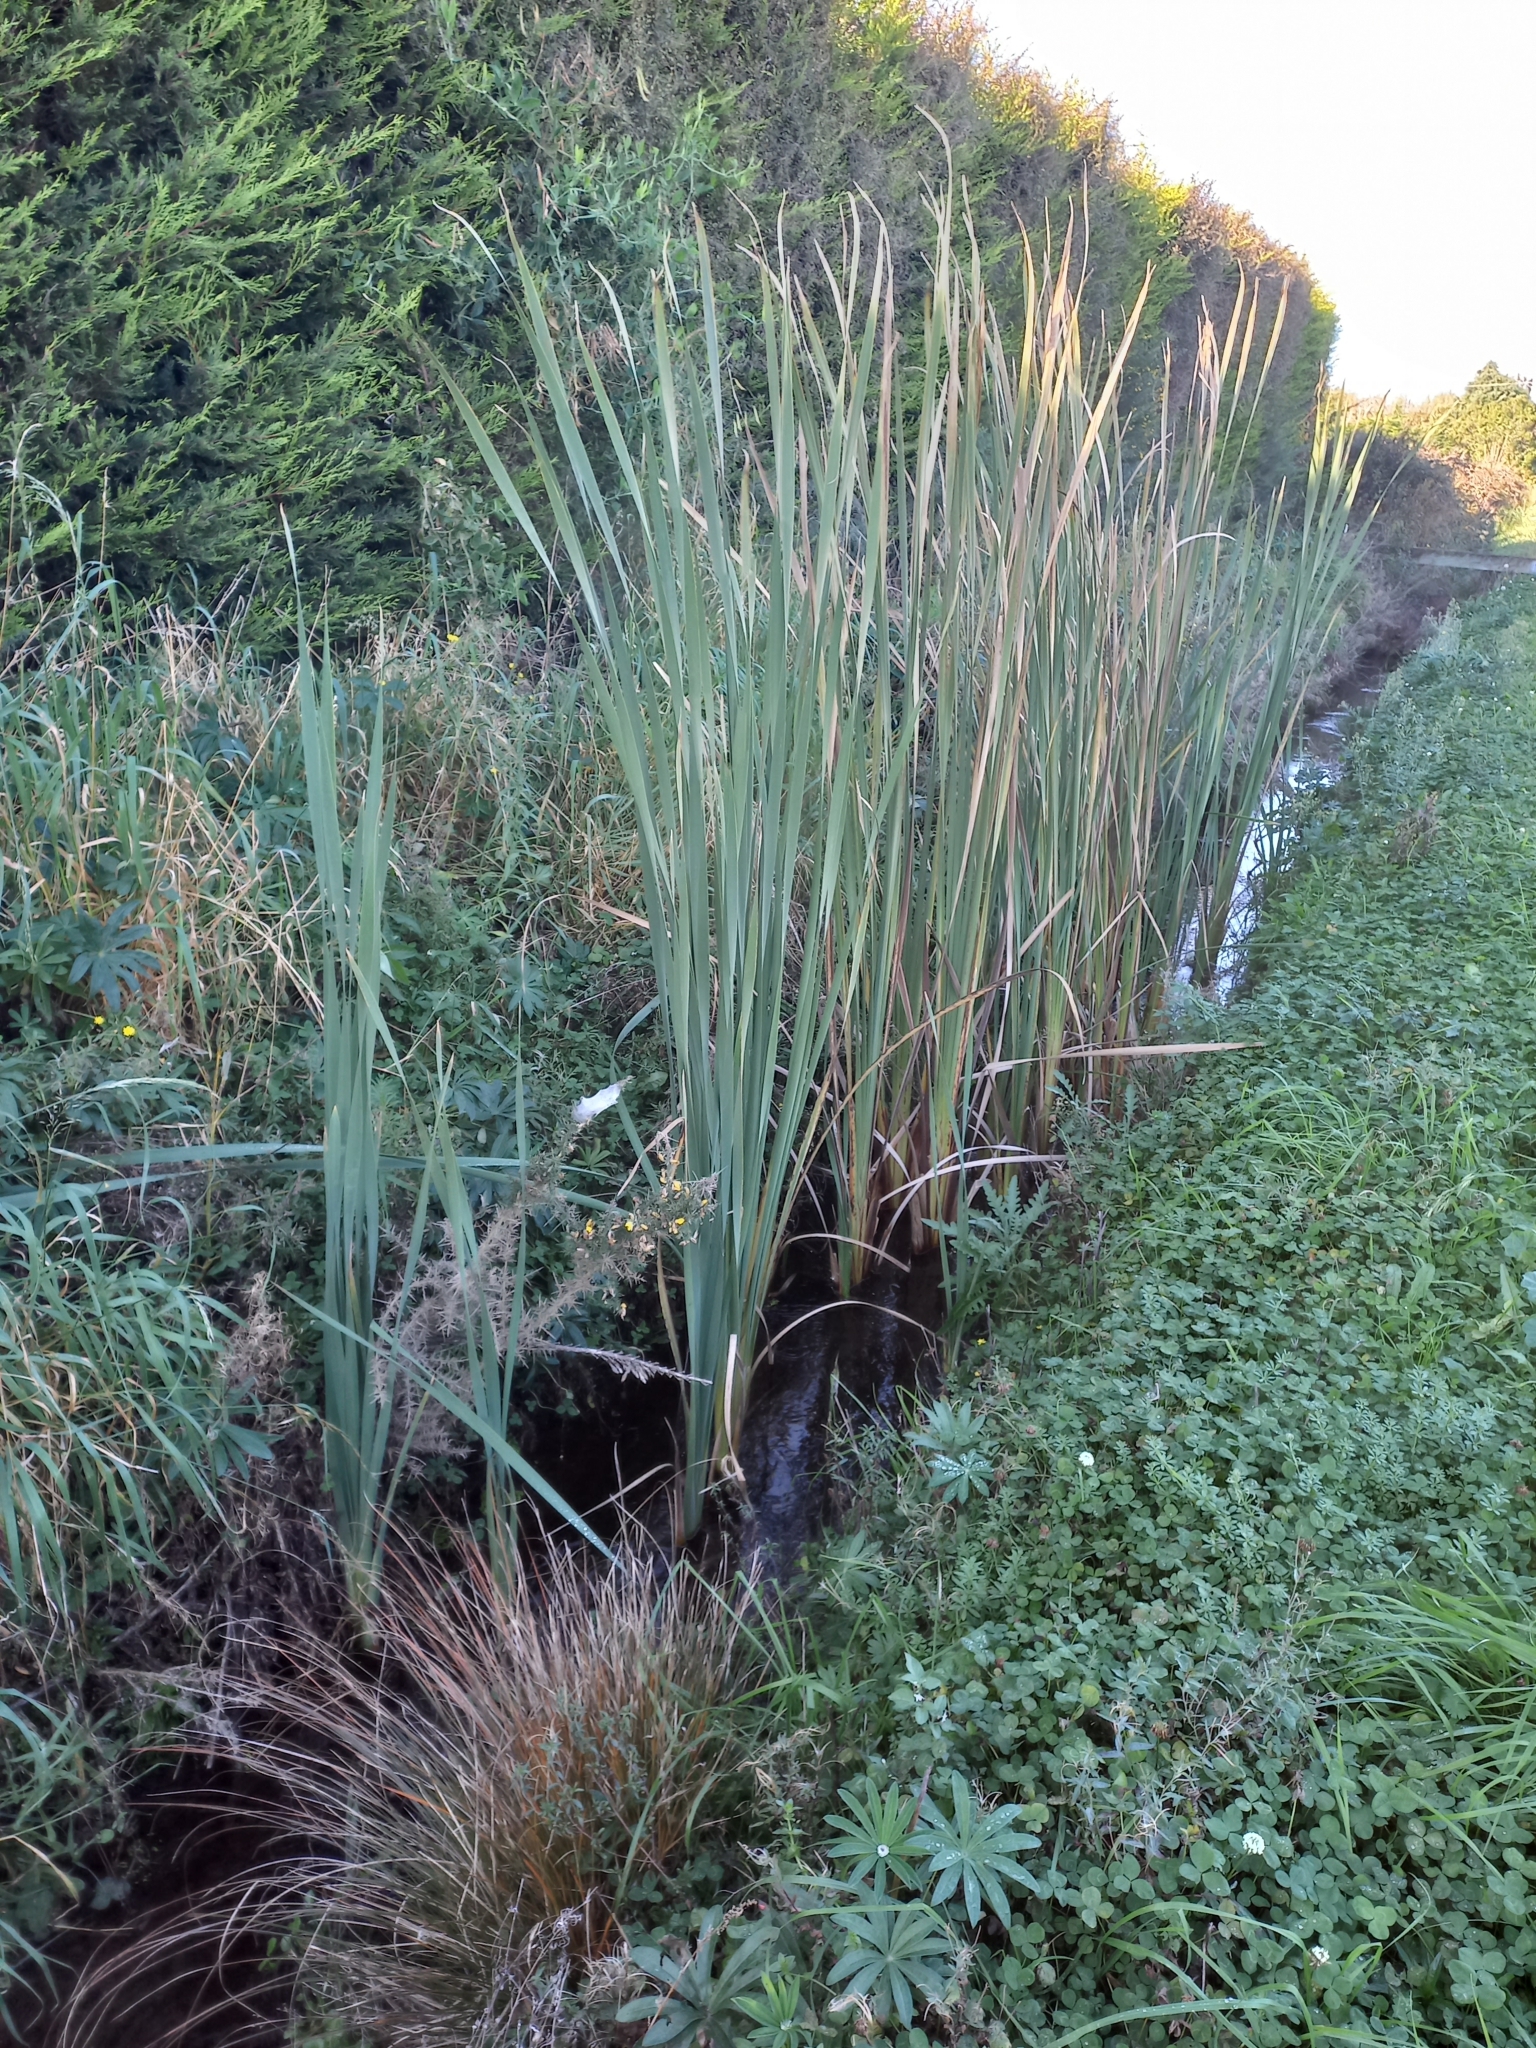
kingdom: Plantae
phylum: Tracheophyta
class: Liliopsida
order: Poales
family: Typhaceae
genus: Typha
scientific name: Typha orientalis
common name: Bullrush
